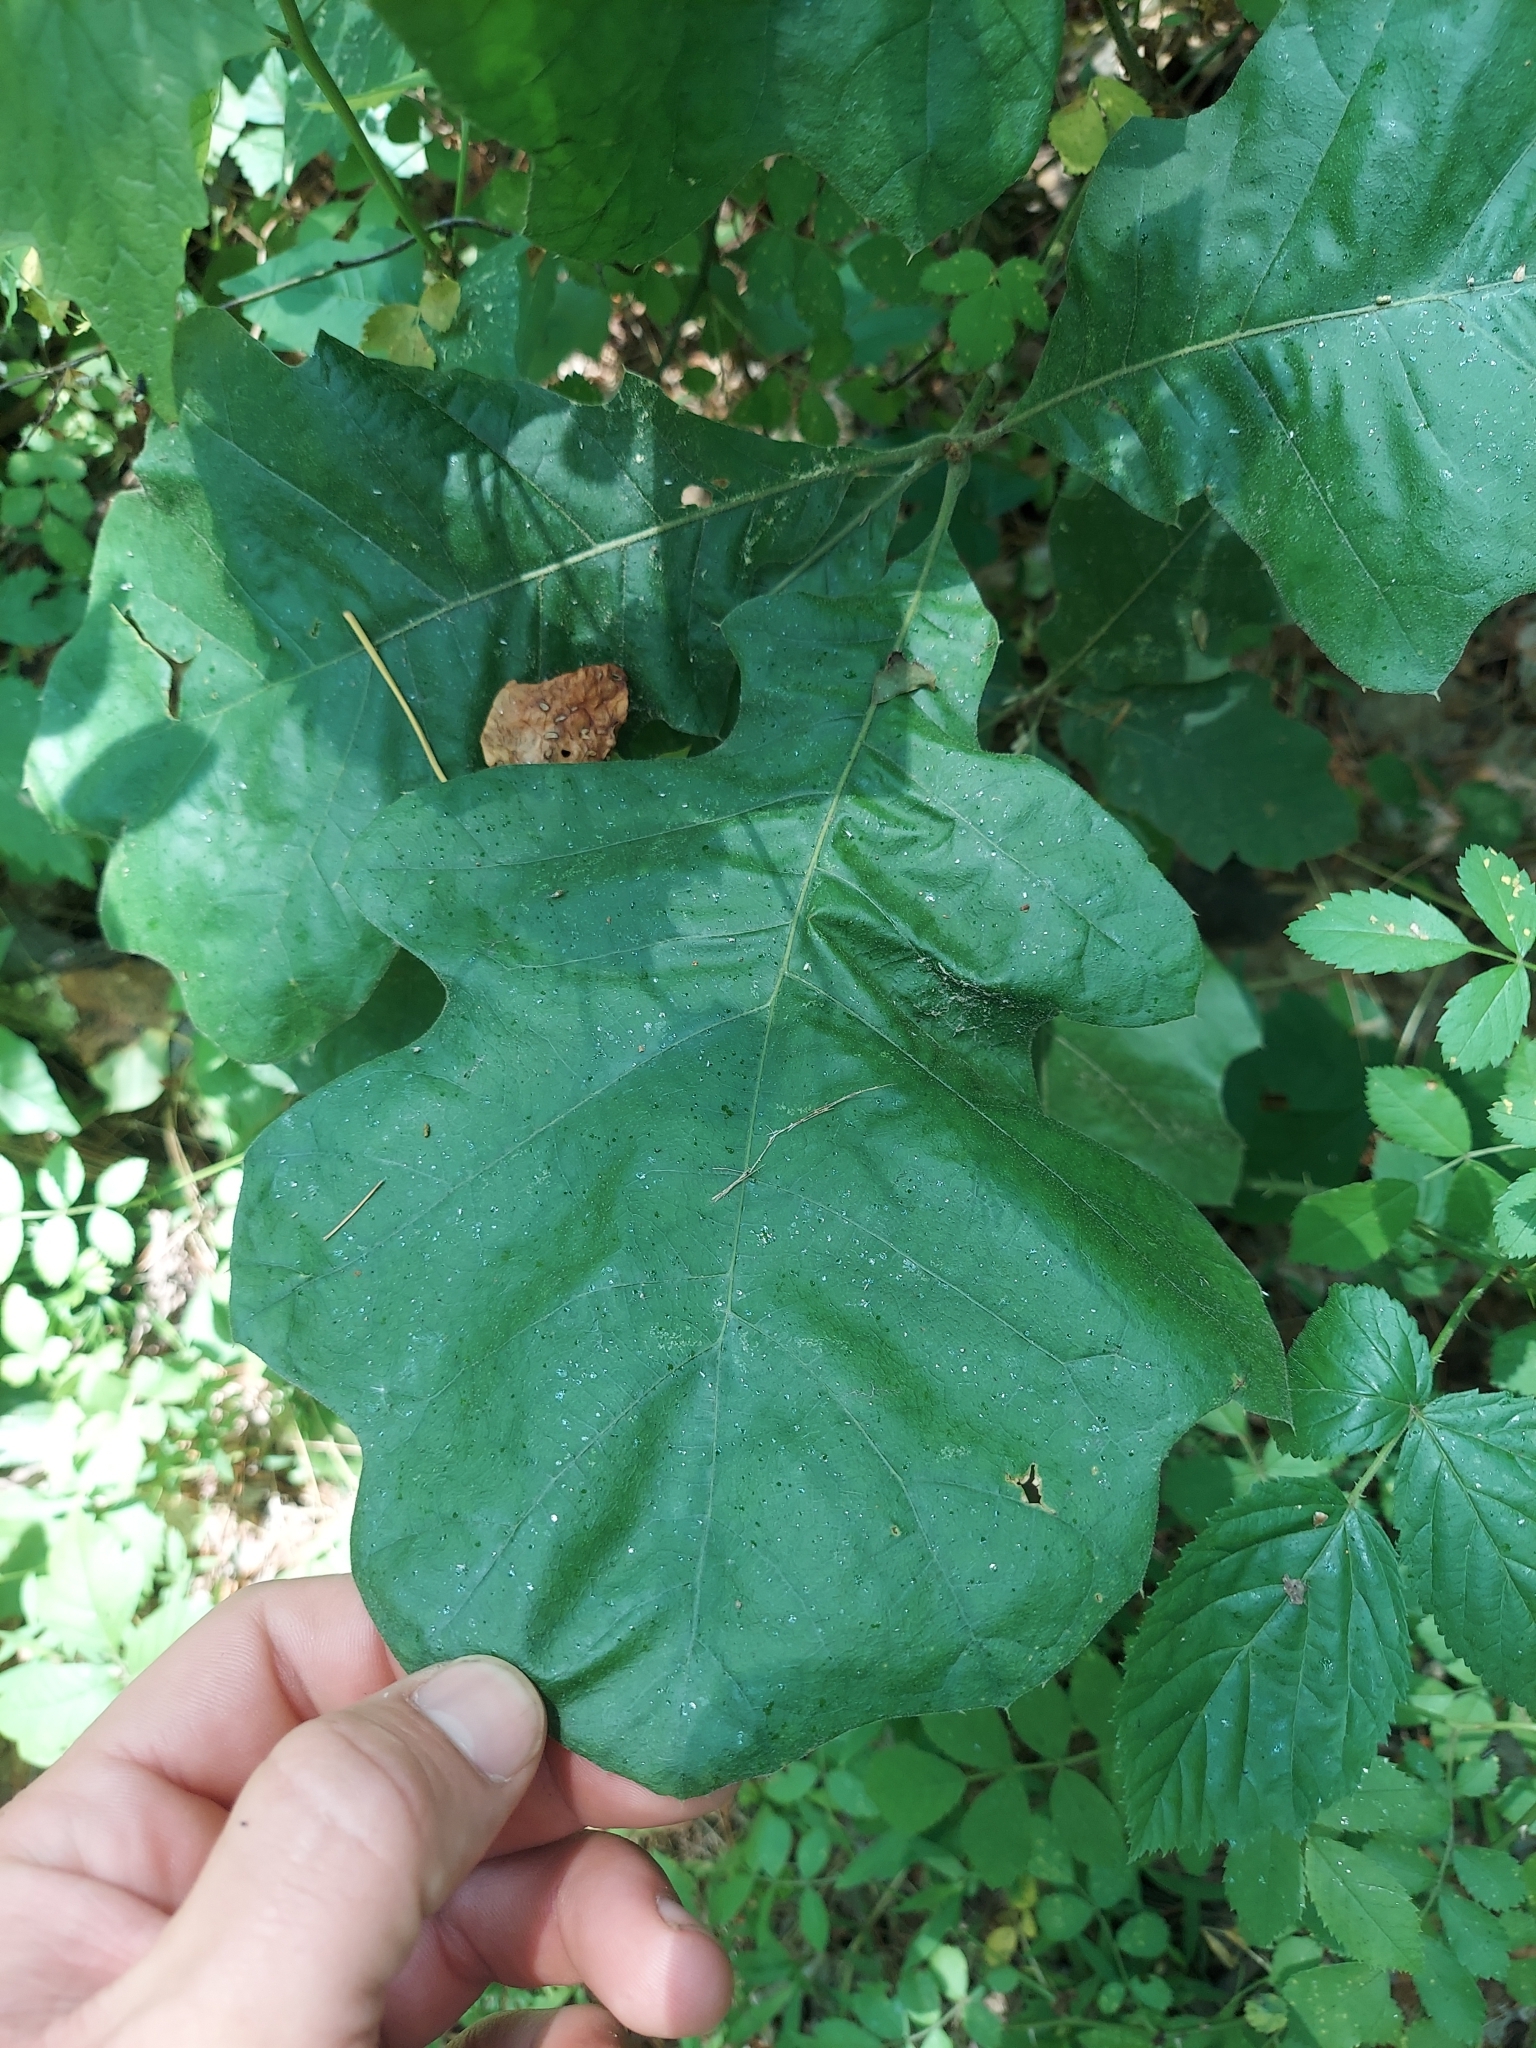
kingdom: Plantae
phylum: Tracheophyta
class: Magnoliopsida
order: Fagales
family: Fagaceae
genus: Quercus
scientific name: Quercus velutina
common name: Black oak
